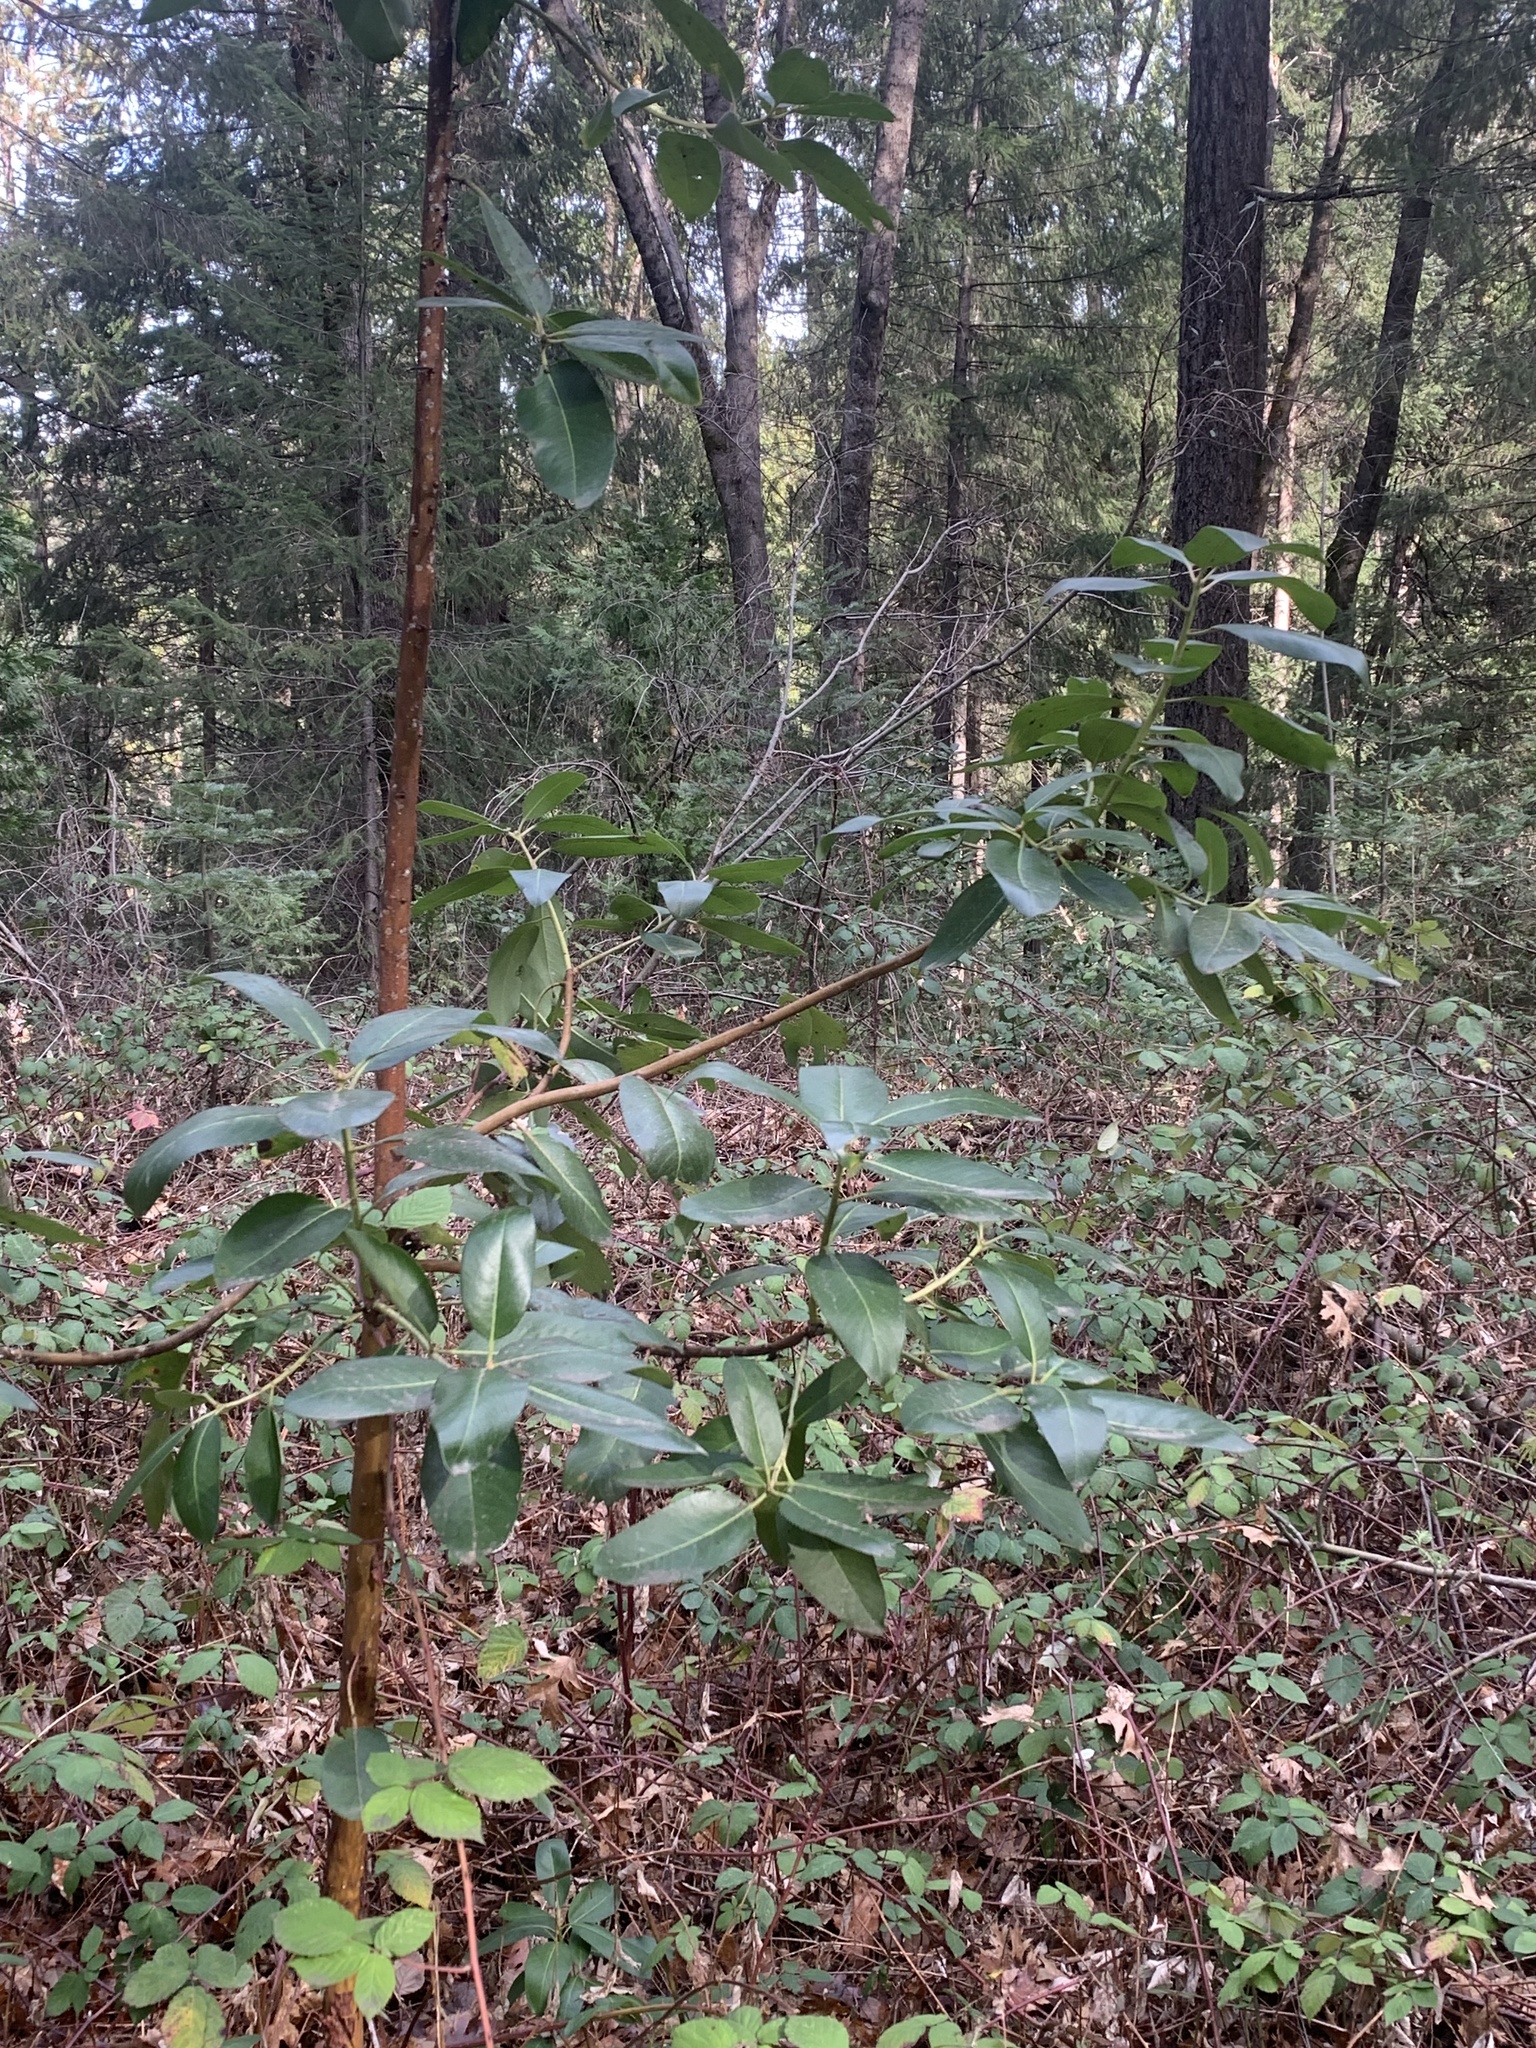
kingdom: Plantae
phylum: Tracheophyta
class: Magnoliopsida
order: Ericales
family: Ericaceae
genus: Arbutus
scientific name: Arbutus menziesii
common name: Pacific madrone
